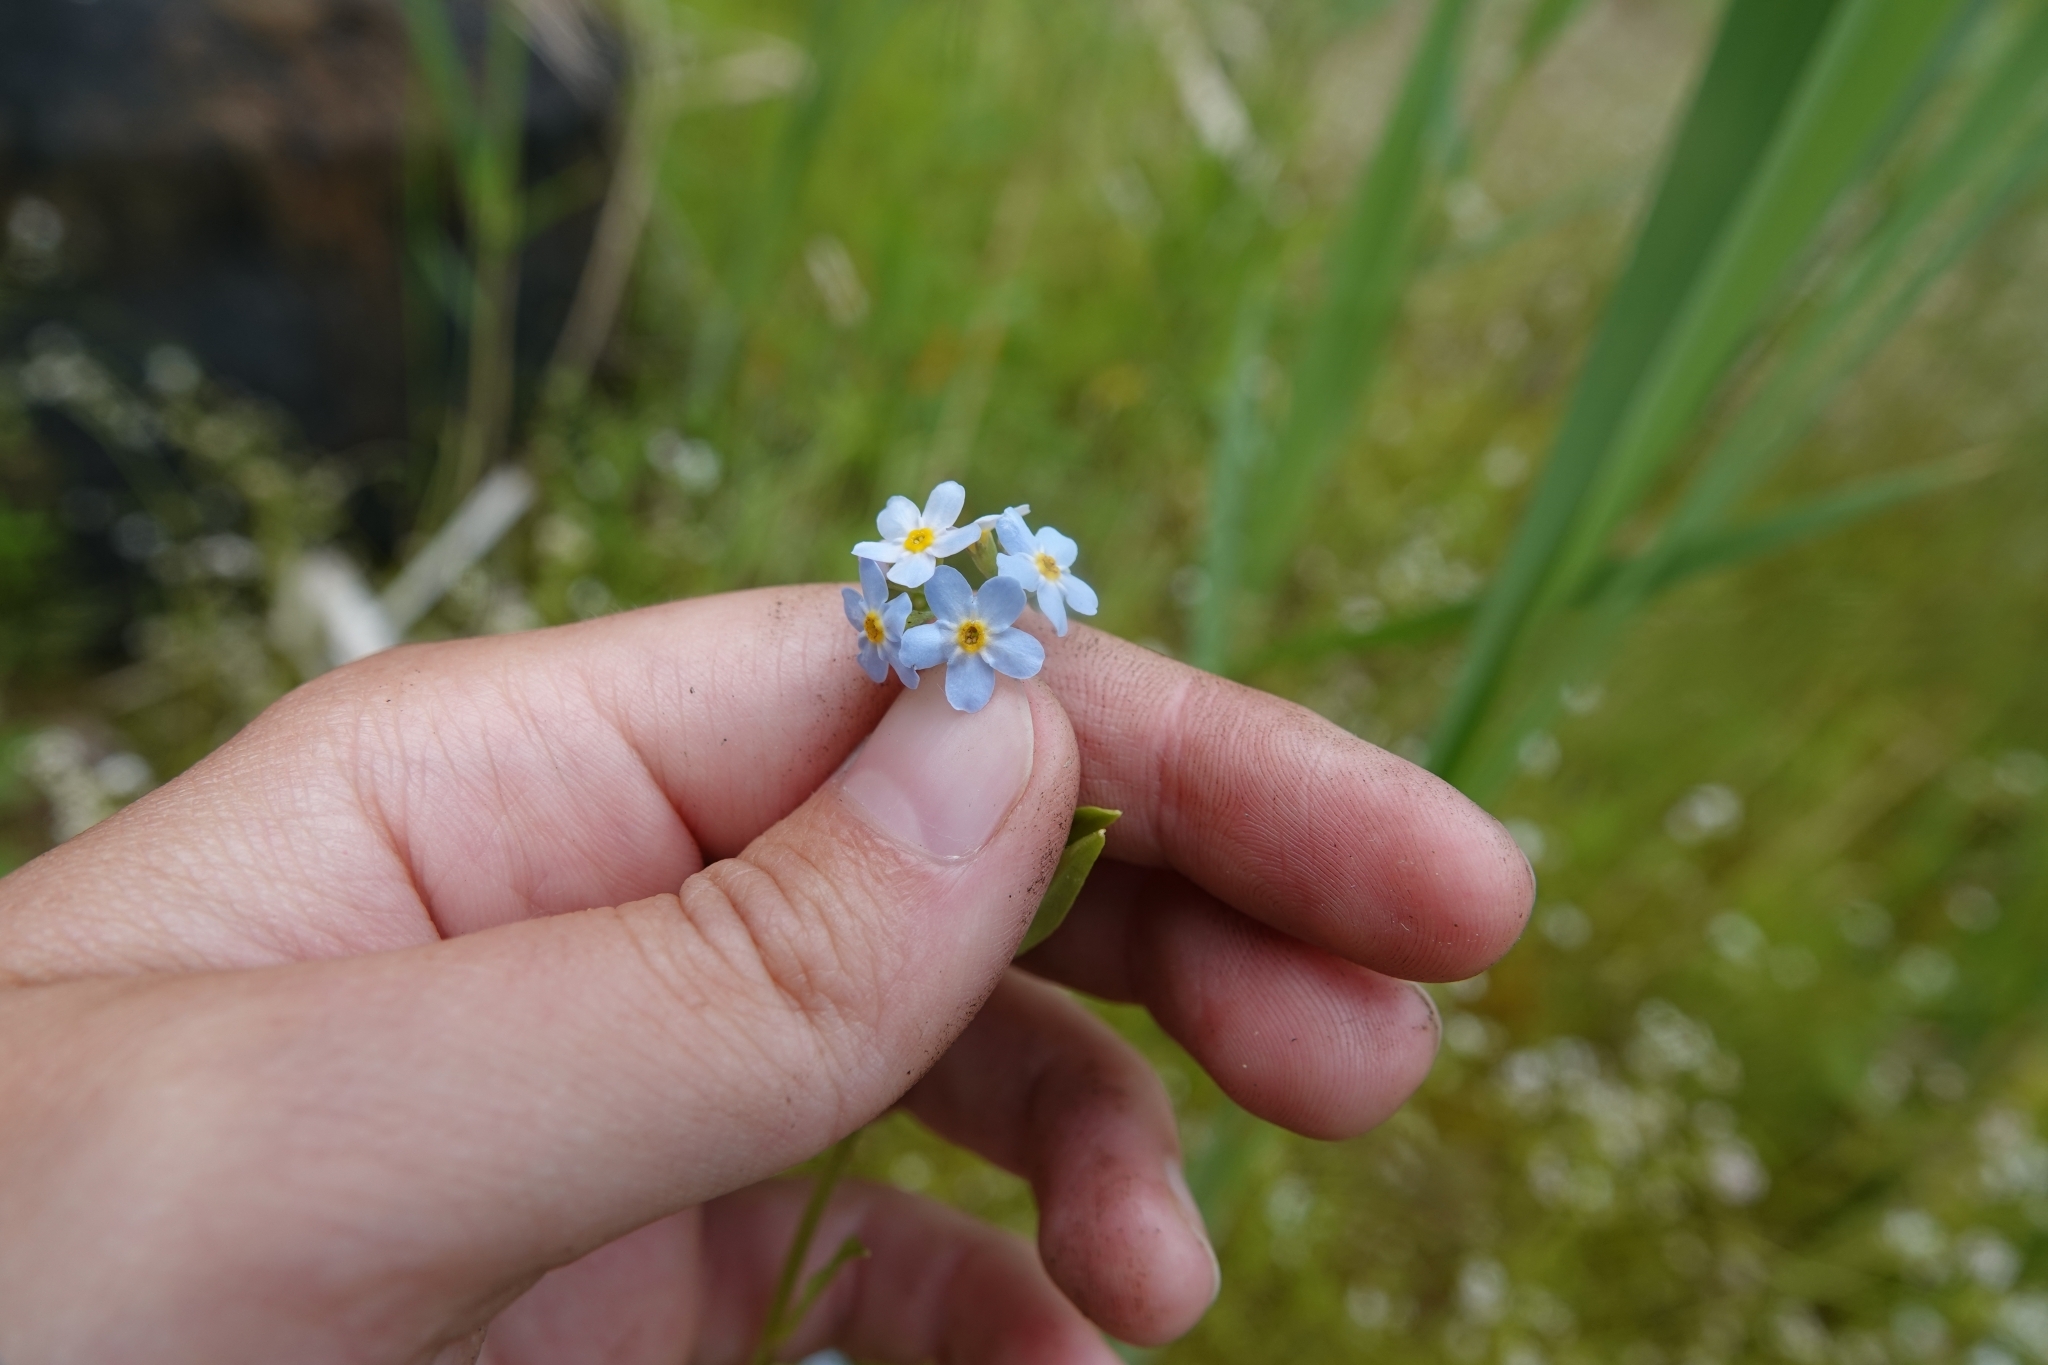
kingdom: Plantae
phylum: Tracheophyta
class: Magnoliopsida
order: Boraginales
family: Boraginaceae
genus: Myosotis
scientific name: Myosotis scorpioides
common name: Water forget-me-not
